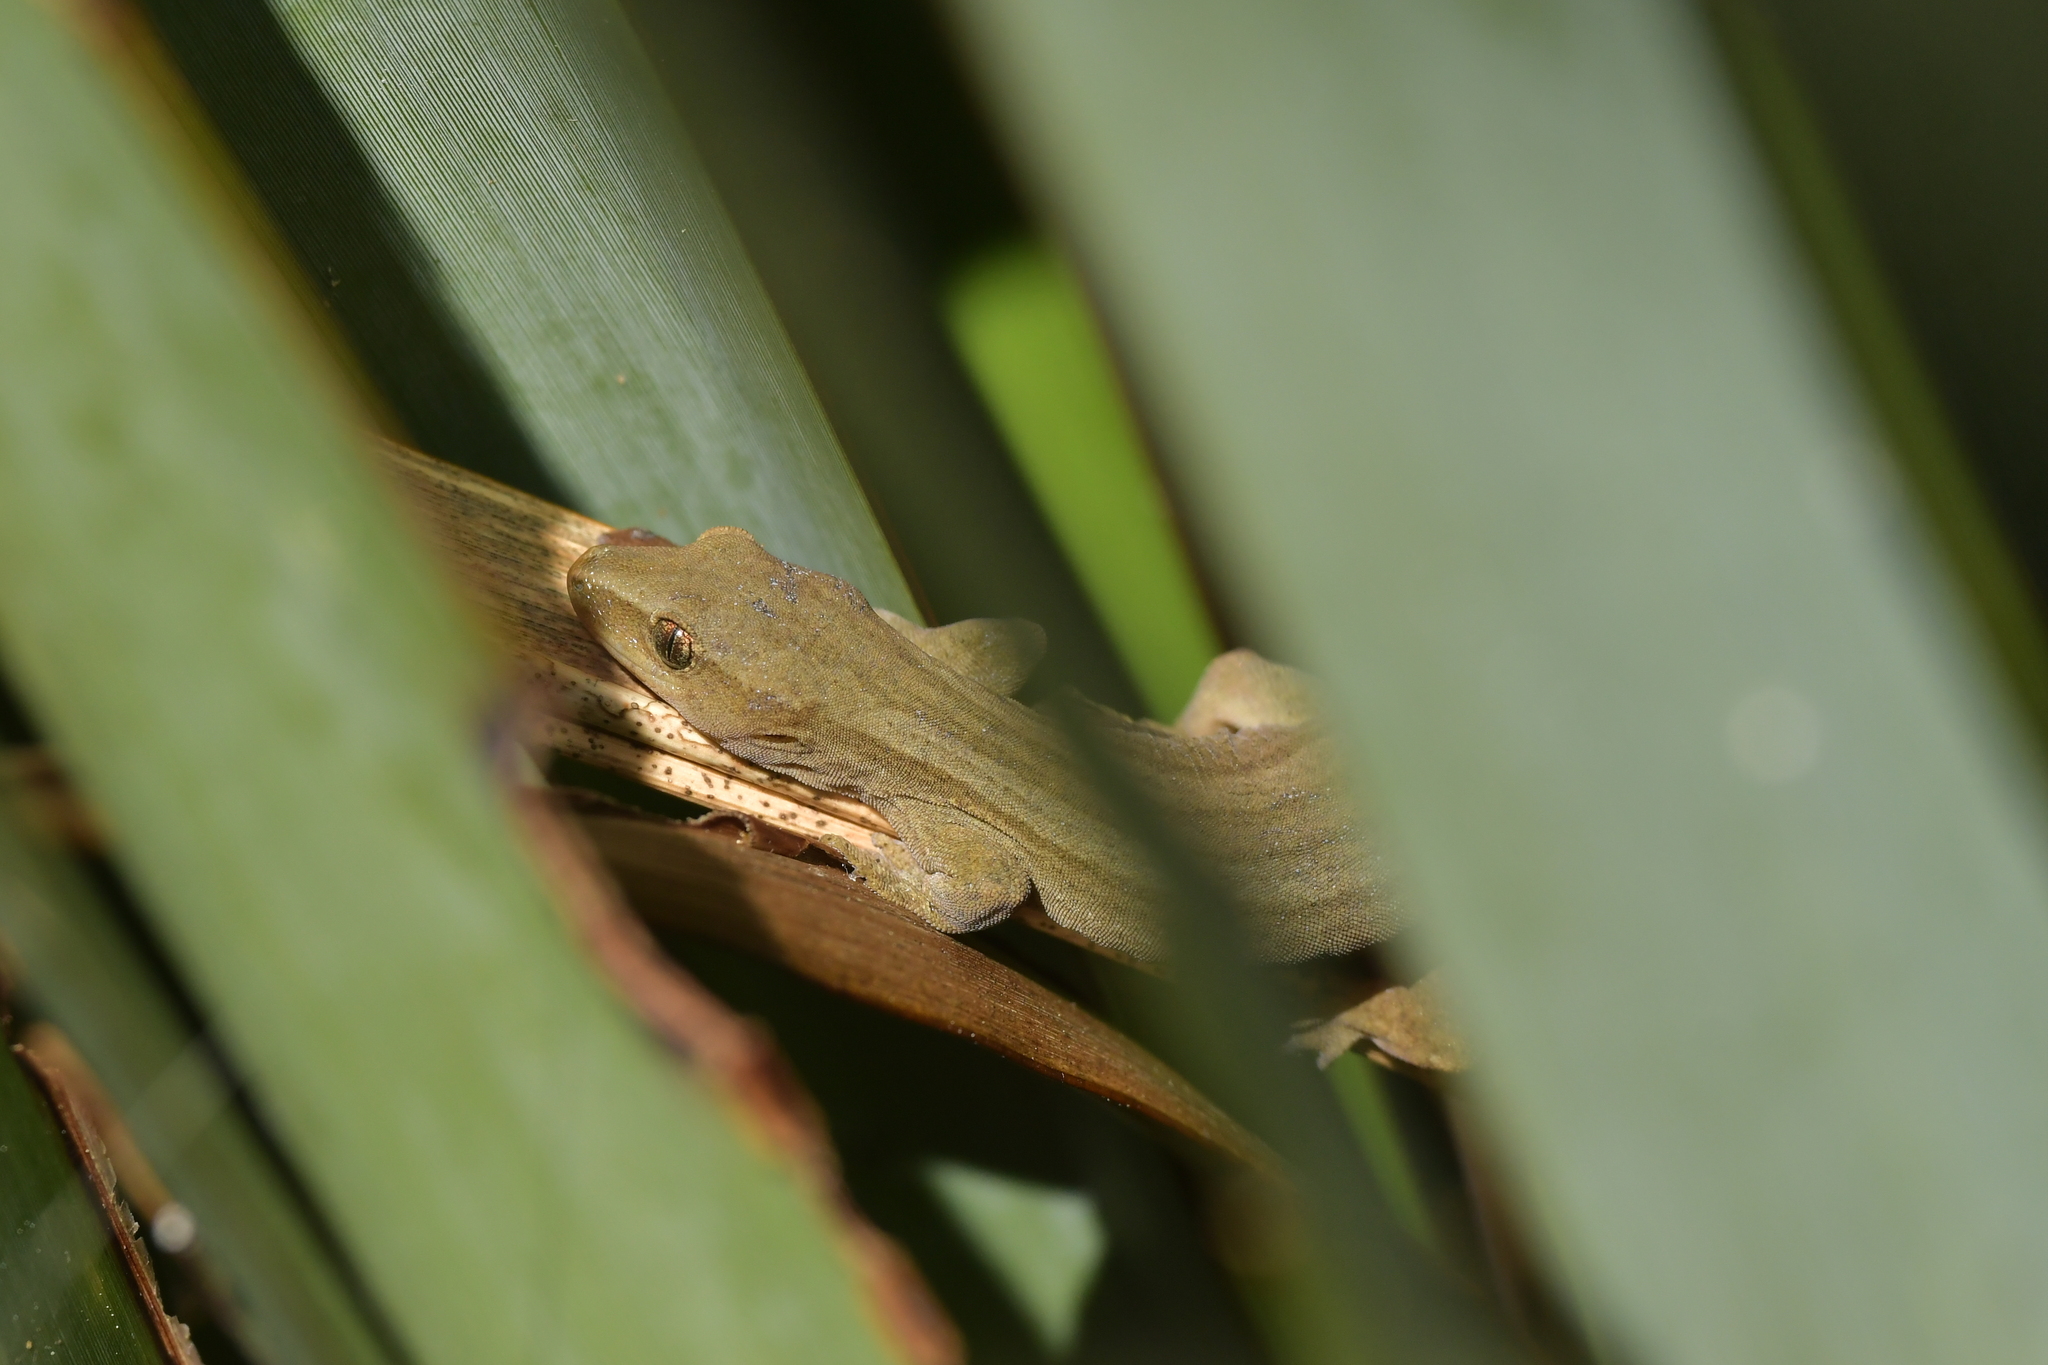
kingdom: Animalia
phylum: Chordata
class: Squamata
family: Diplodactylidae
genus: Woodworthia
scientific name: Woodworthia chrysosiretica
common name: Gold-striped gecko
